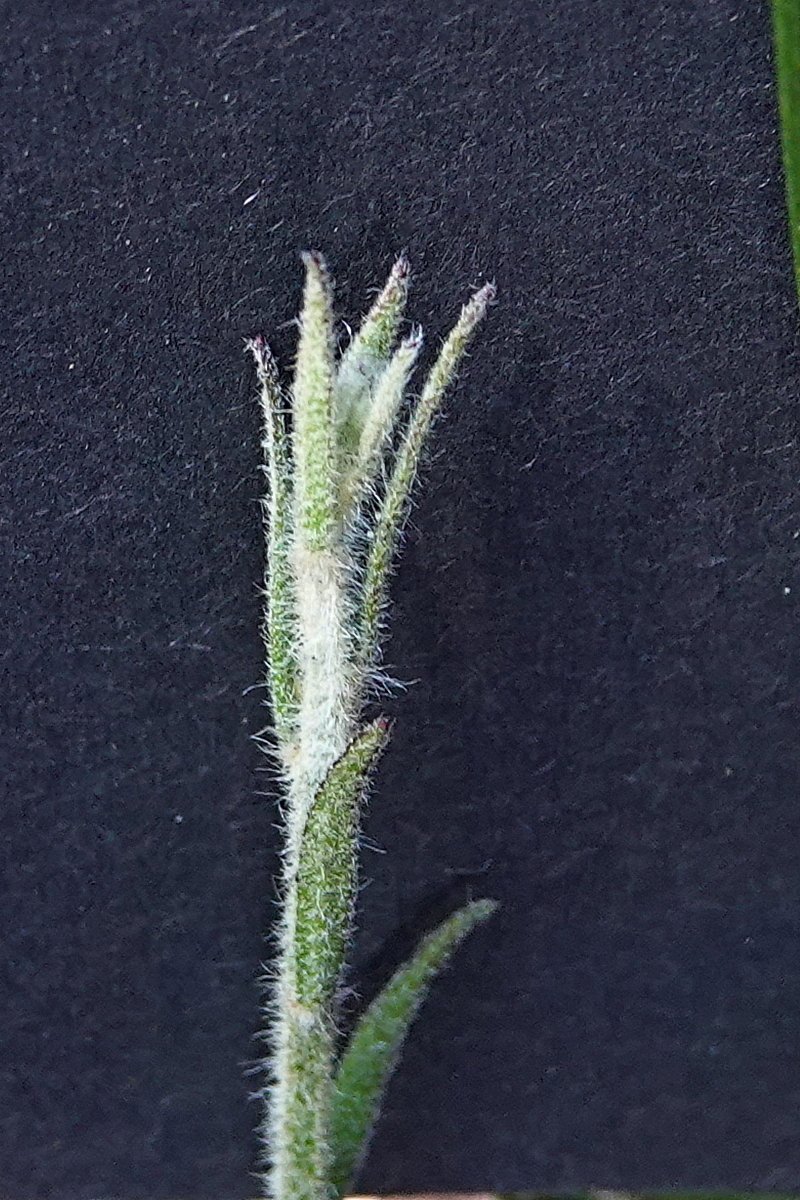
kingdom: Plantae
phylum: Tracheophyta
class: Magnoliopsida
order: Asterales
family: Goodeniaceae
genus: Dampiera
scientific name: Dampiera stricta
